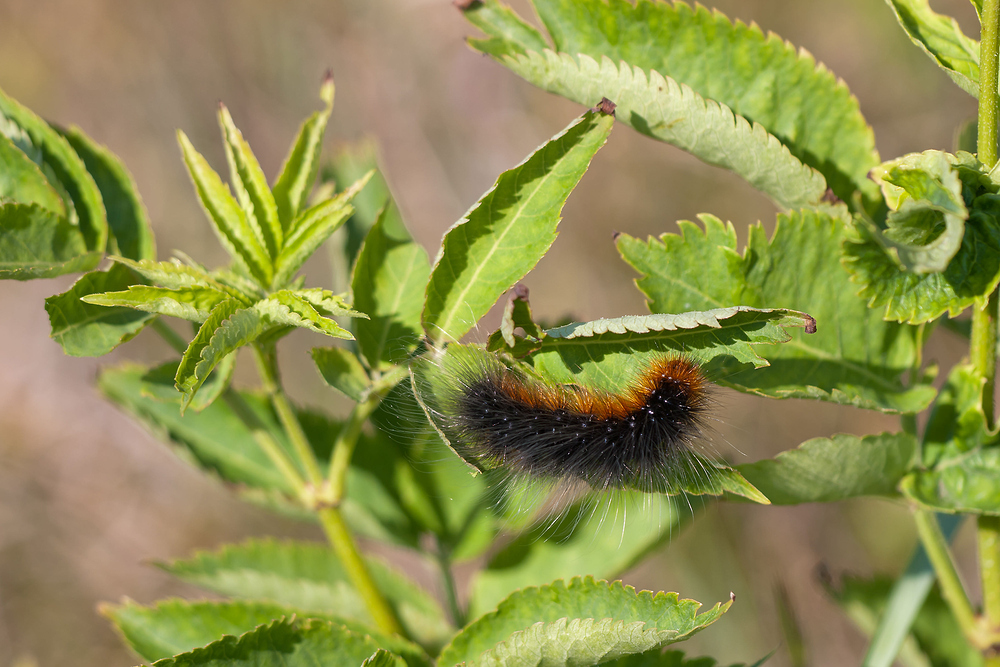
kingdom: Animalia
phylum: Arthropoda
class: Insecta
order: Lepidoptera
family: Erebidae
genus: Arctia
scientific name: Arctia caja
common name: Garden tiger
